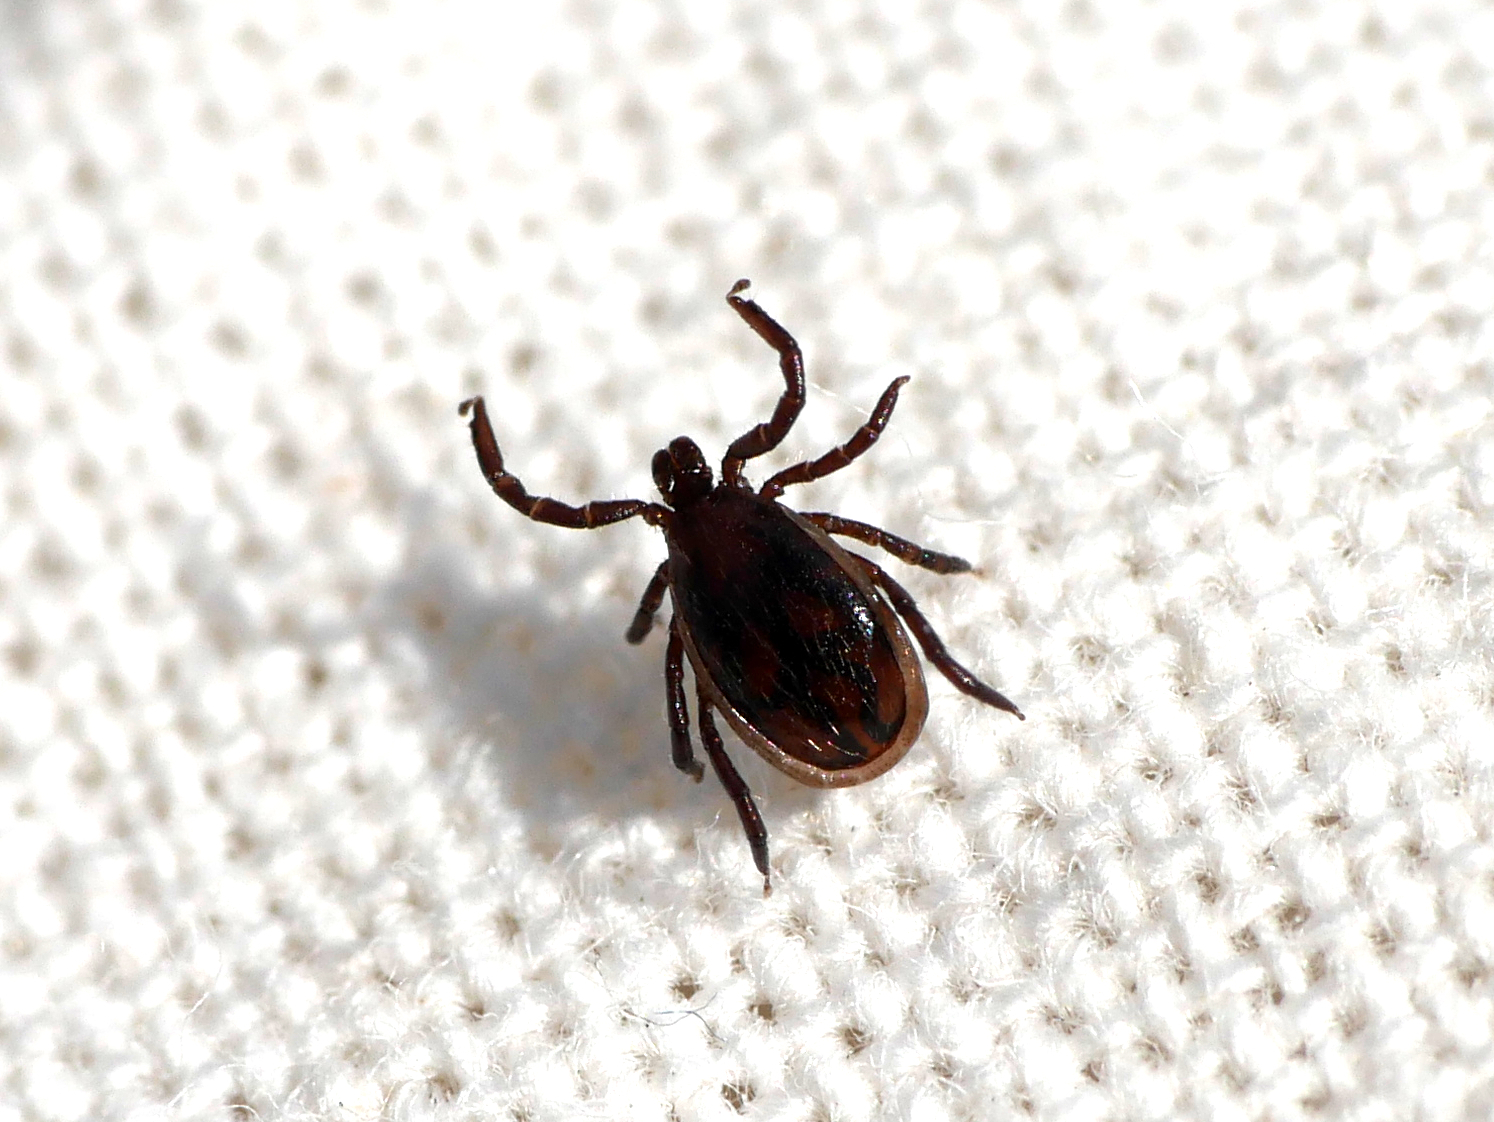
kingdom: Animalia
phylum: Arthropoda
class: Arachnida
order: Ixodida
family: Ixodidae
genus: Ixodes
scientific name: Ixodes ricinus
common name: Castor bean tick
